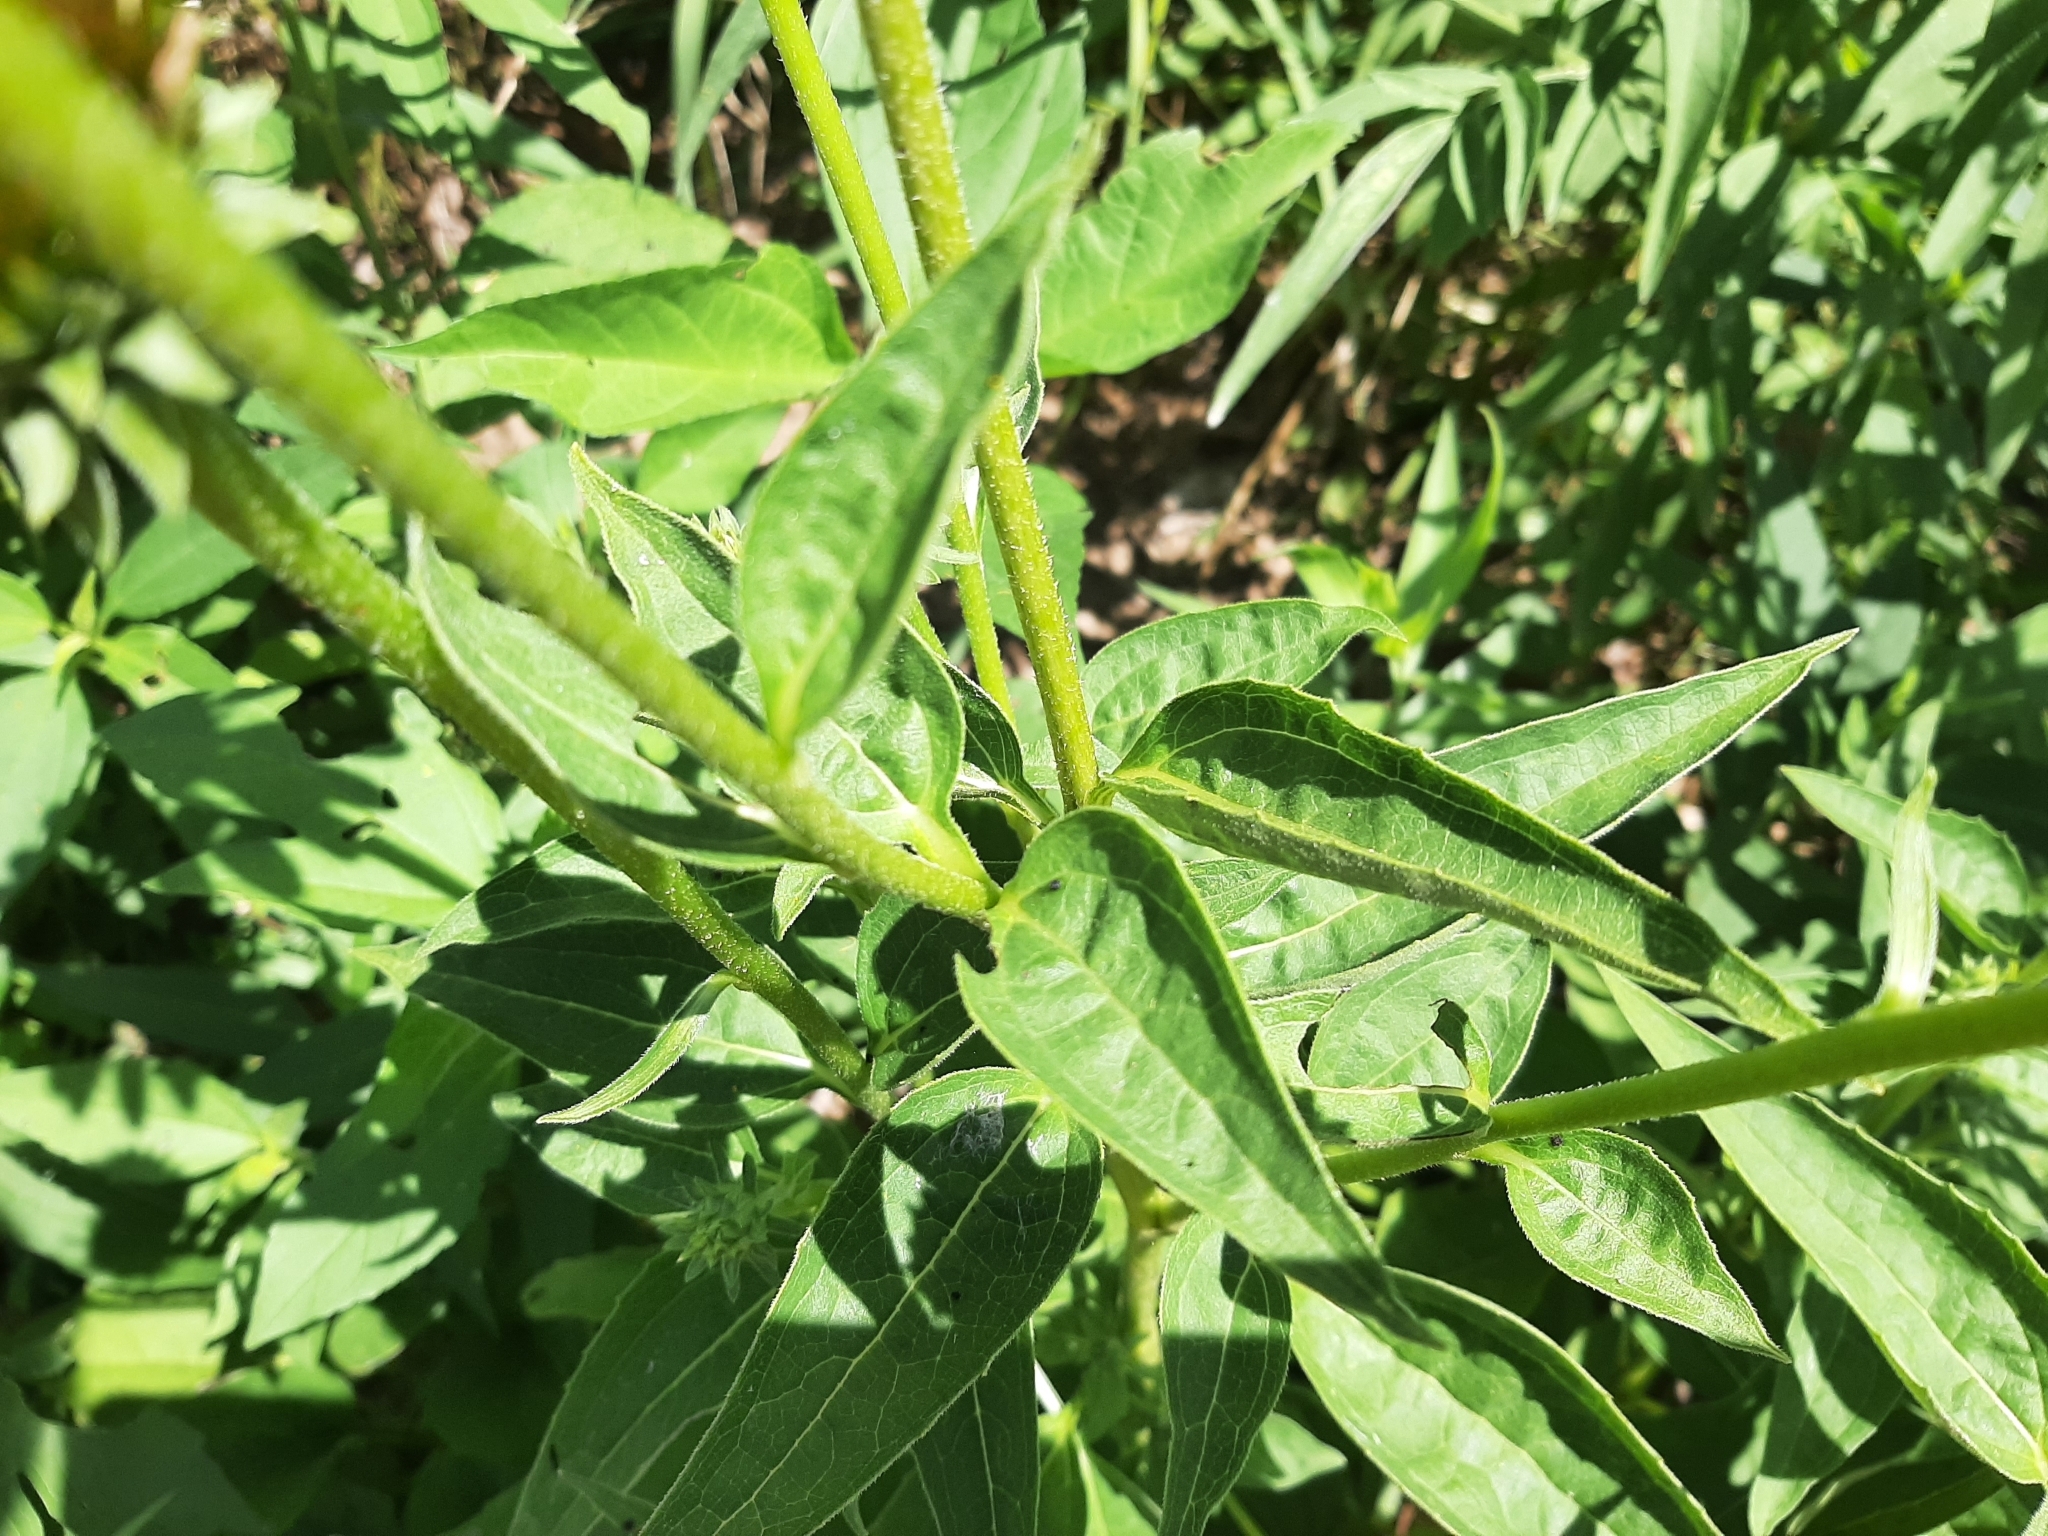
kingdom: Plantae
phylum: Tracheophyta
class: Magnoliopsida
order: Asterales
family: Asteraceae
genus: Echinacea
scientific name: Echinacea purpurea
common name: Broad-leaved purple coneflower
